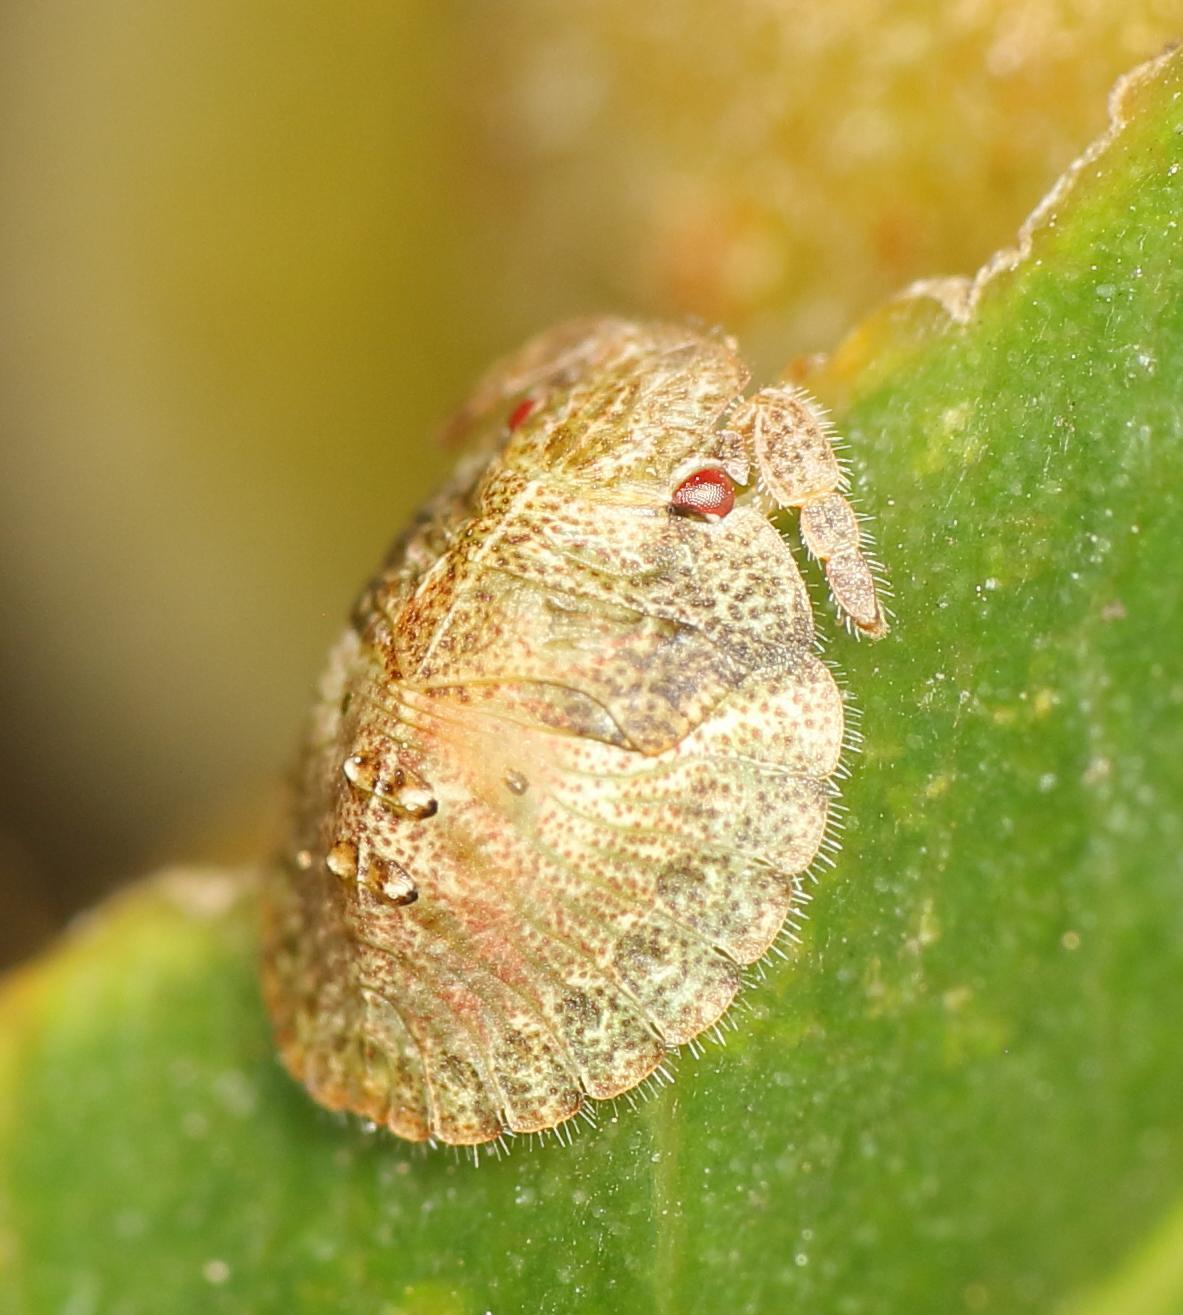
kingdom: Animalia
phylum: Arthropoda
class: Insecta
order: Hemiptera
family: Acanthosomatidae
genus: Uhlunga
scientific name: Uhlunga typica
